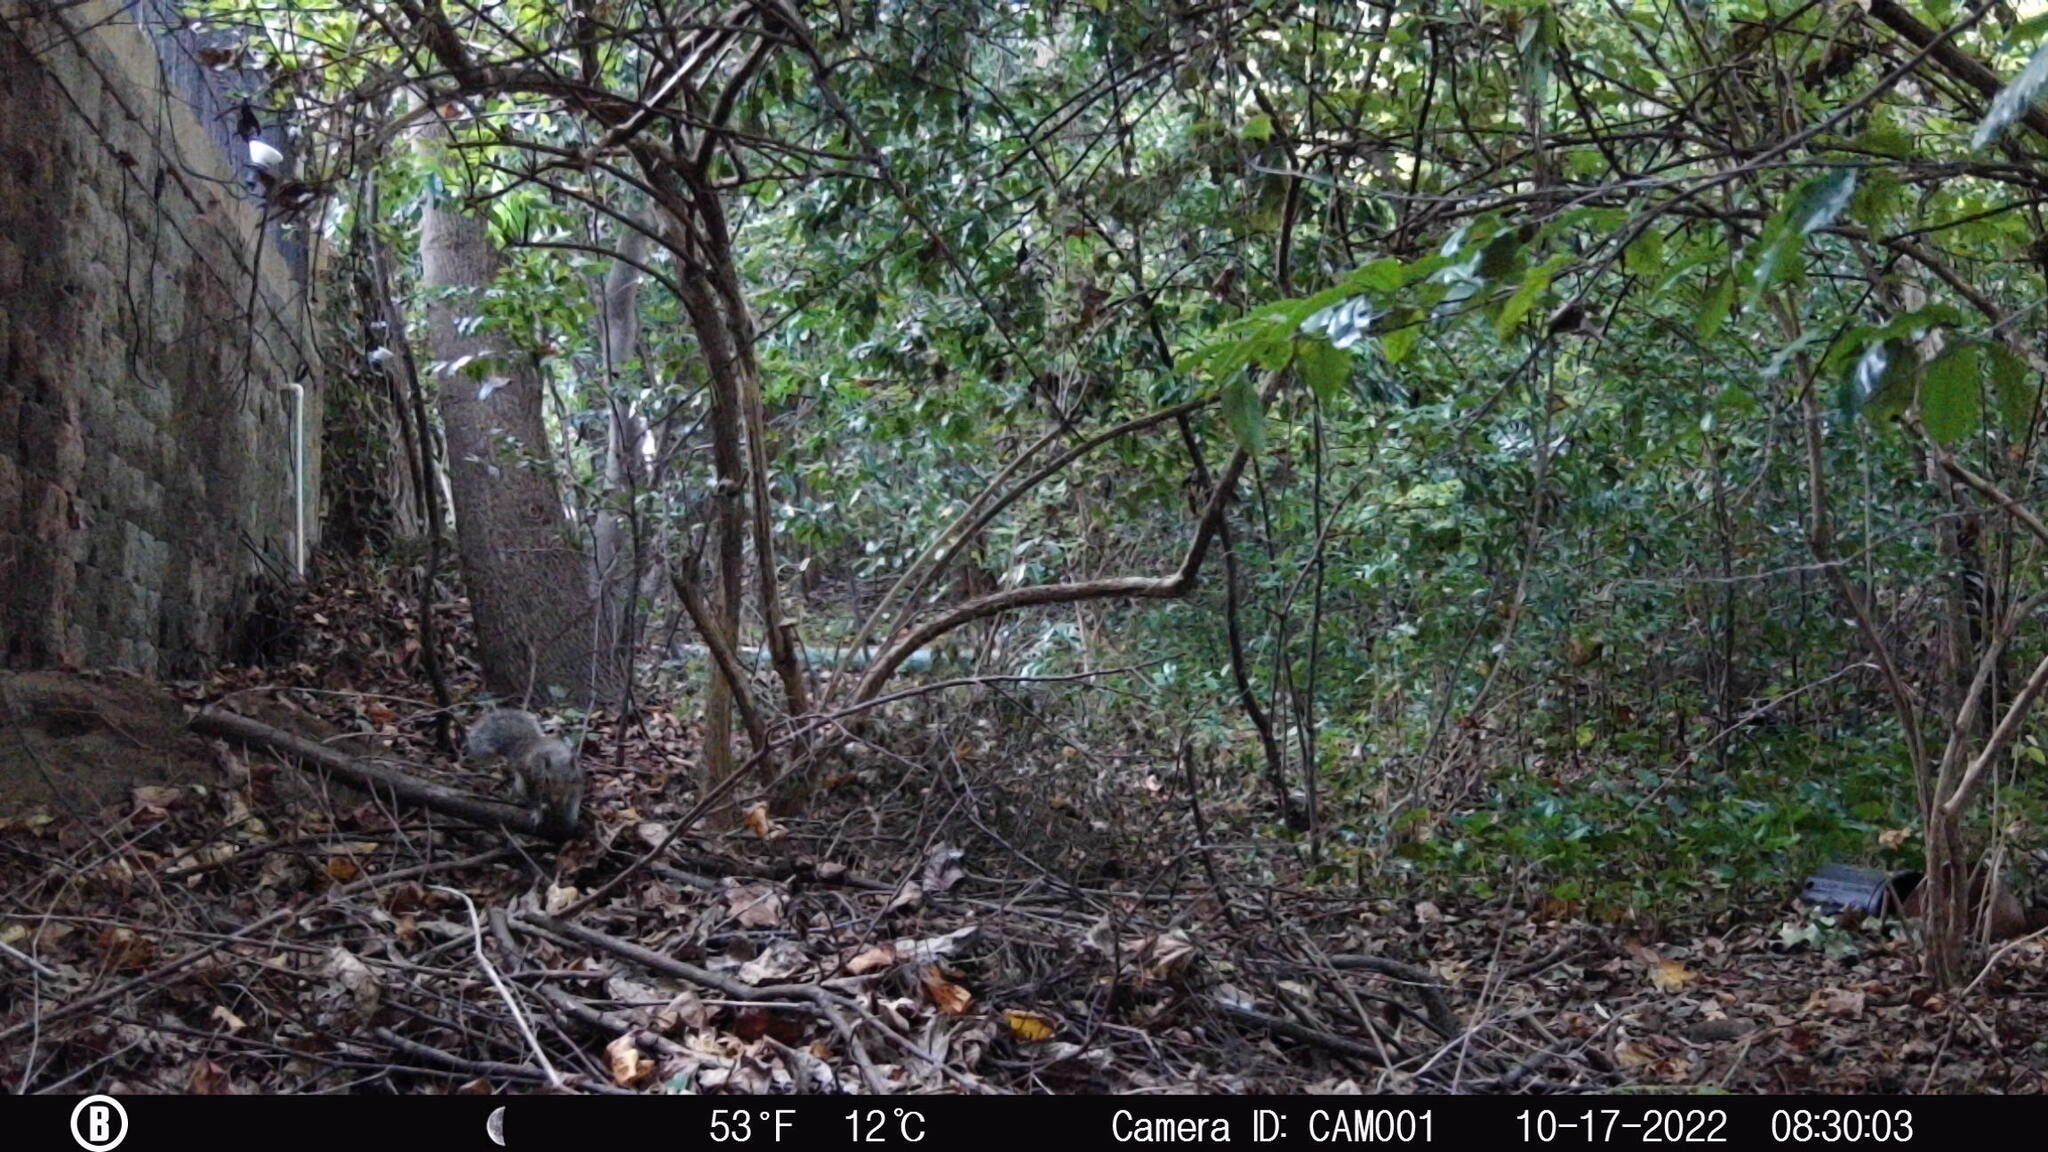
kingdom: Animalia
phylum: Chordata
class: Mammalia
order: Rodentia
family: Sciuridae
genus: Sciurus
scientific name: Sciurus carolinensis
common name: Eastern gray squirrel
